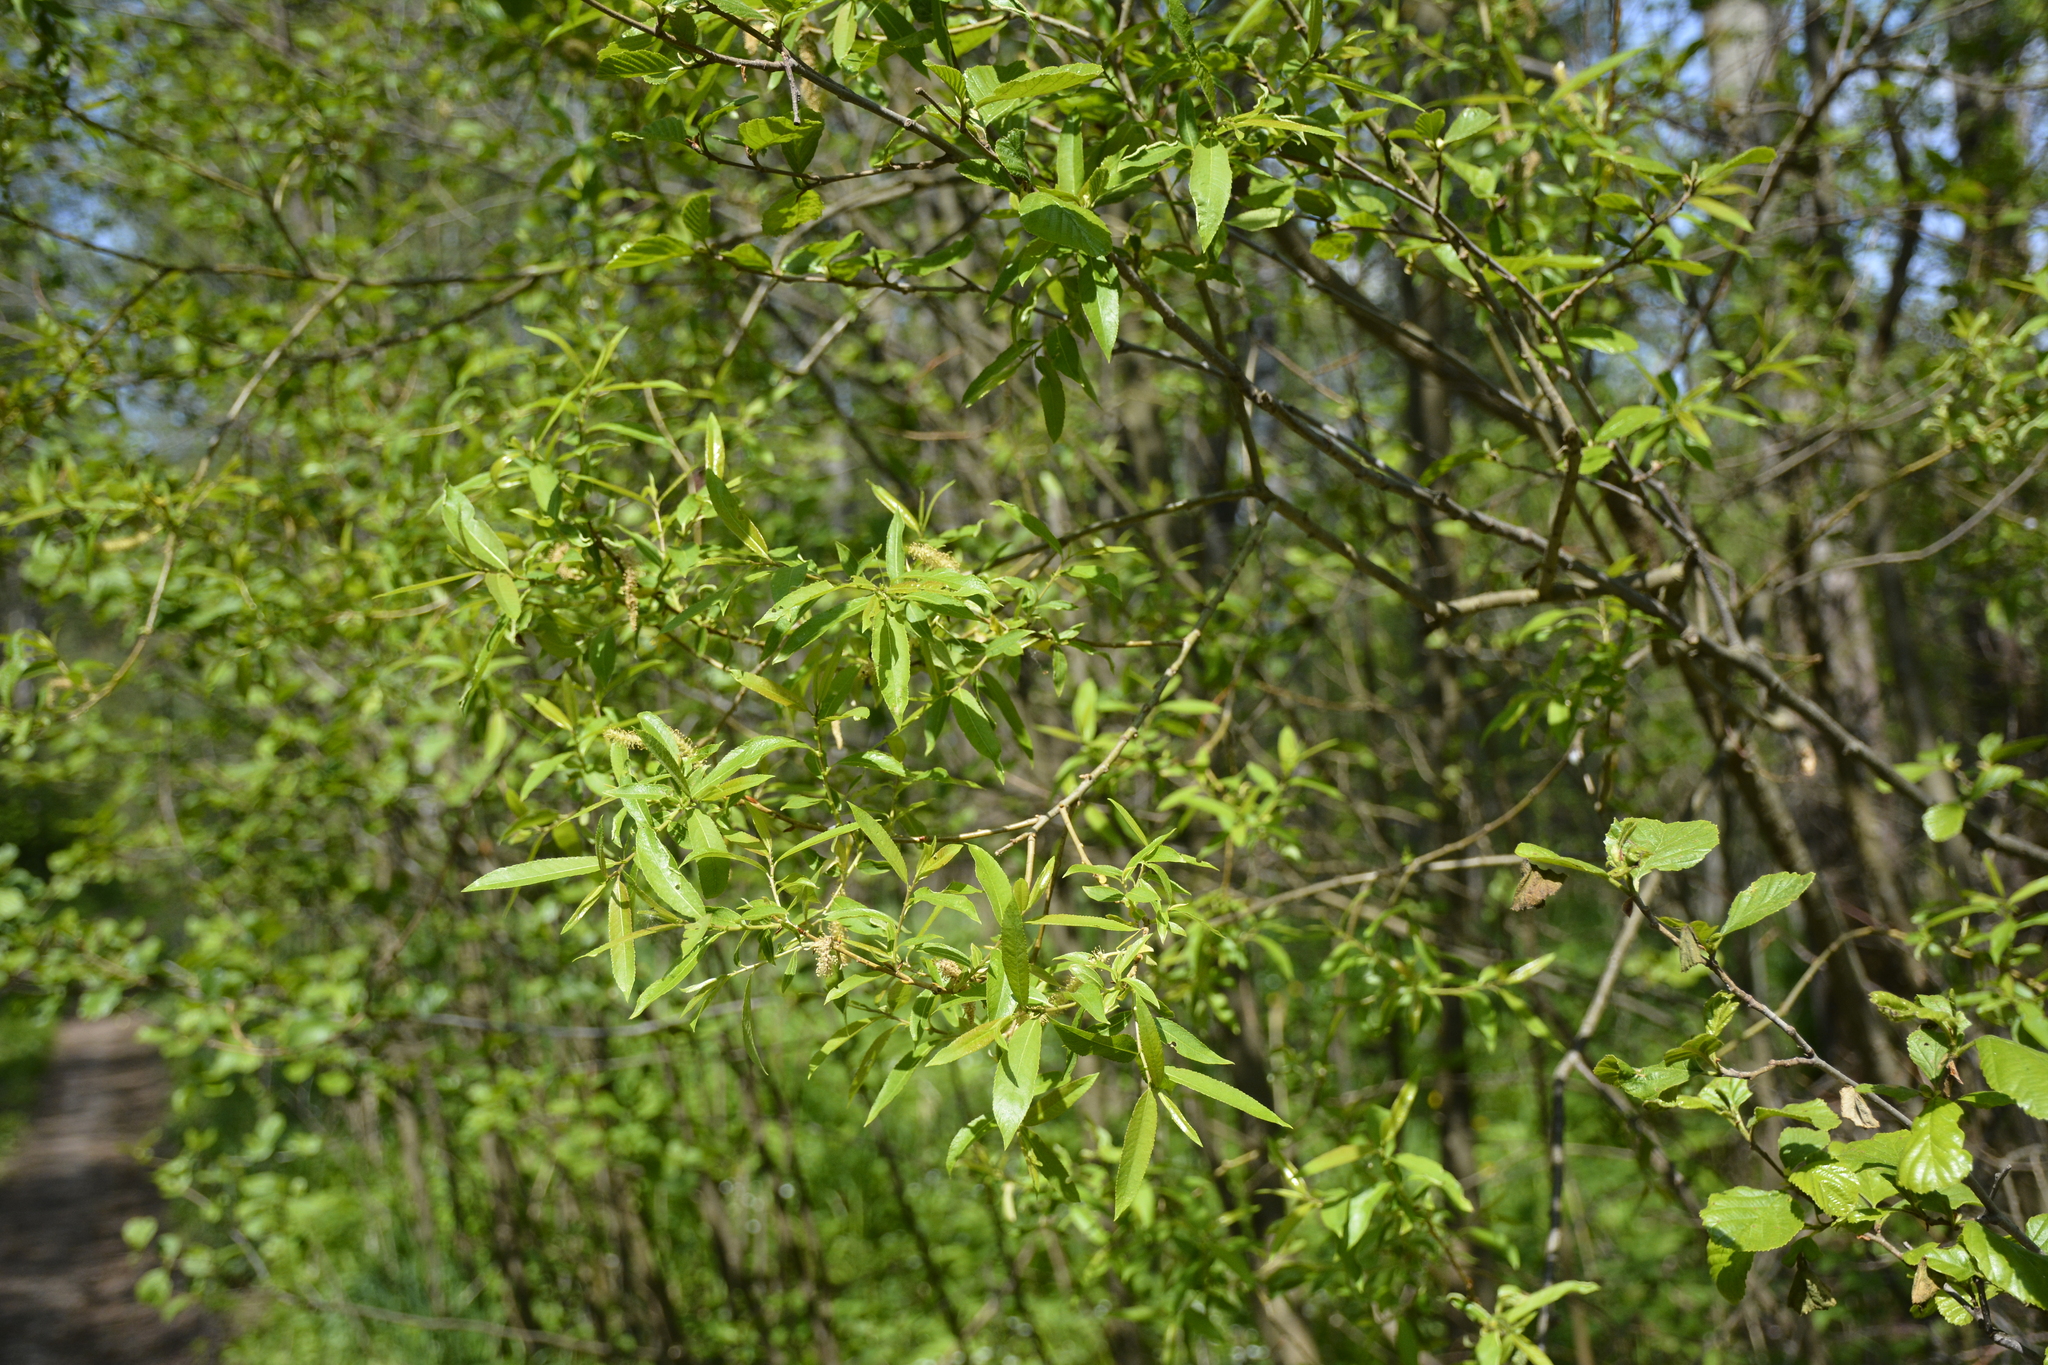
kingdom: Plantae
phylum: Tracheophyta
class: Magnoliopsida
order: Malpighiales
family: Salicaceae
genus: Salix
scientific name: Salix triandra
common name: Almond willow
